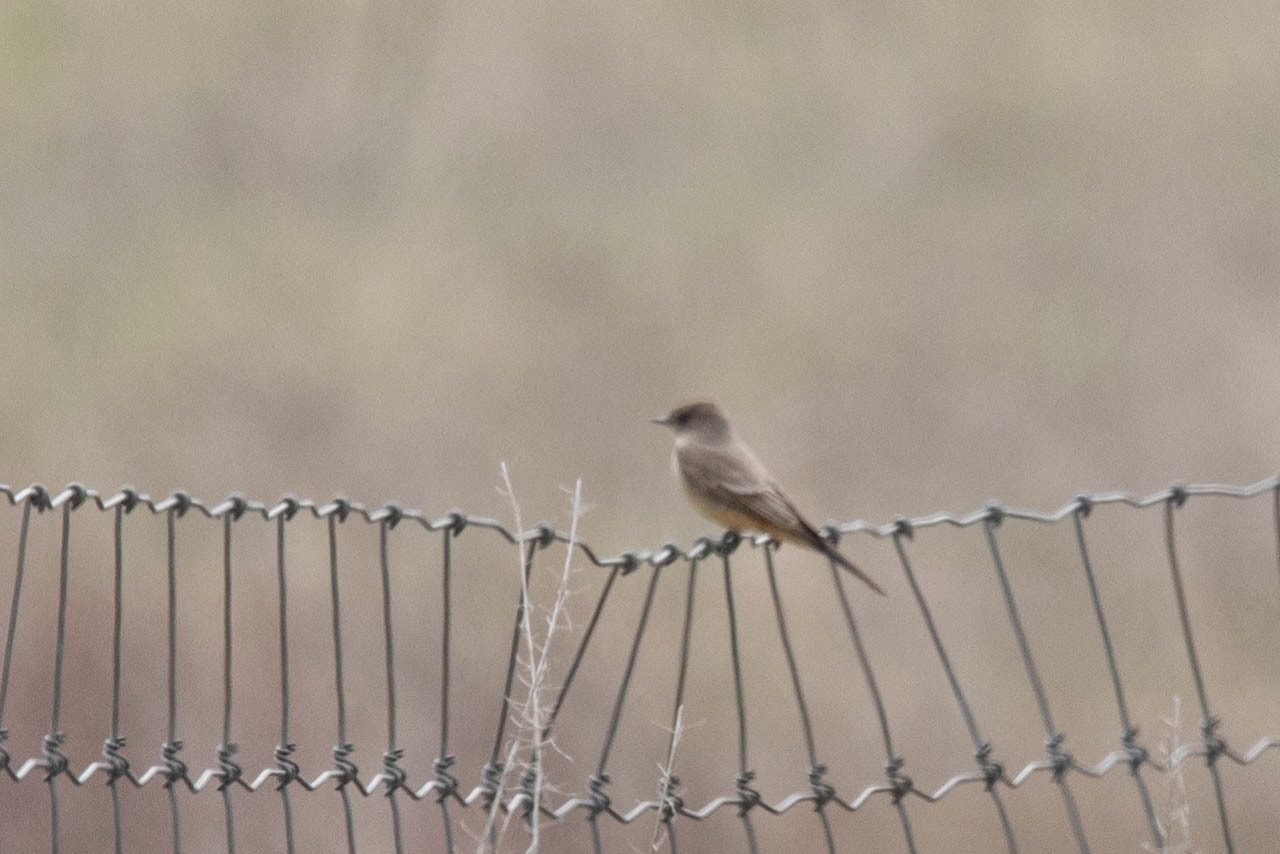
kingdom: Animalia
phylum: Chordata
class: Aves
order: Passeriformes
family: Tyrannidae
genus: Sayornis
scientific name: Sayornis saya
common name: Say's phoebe
